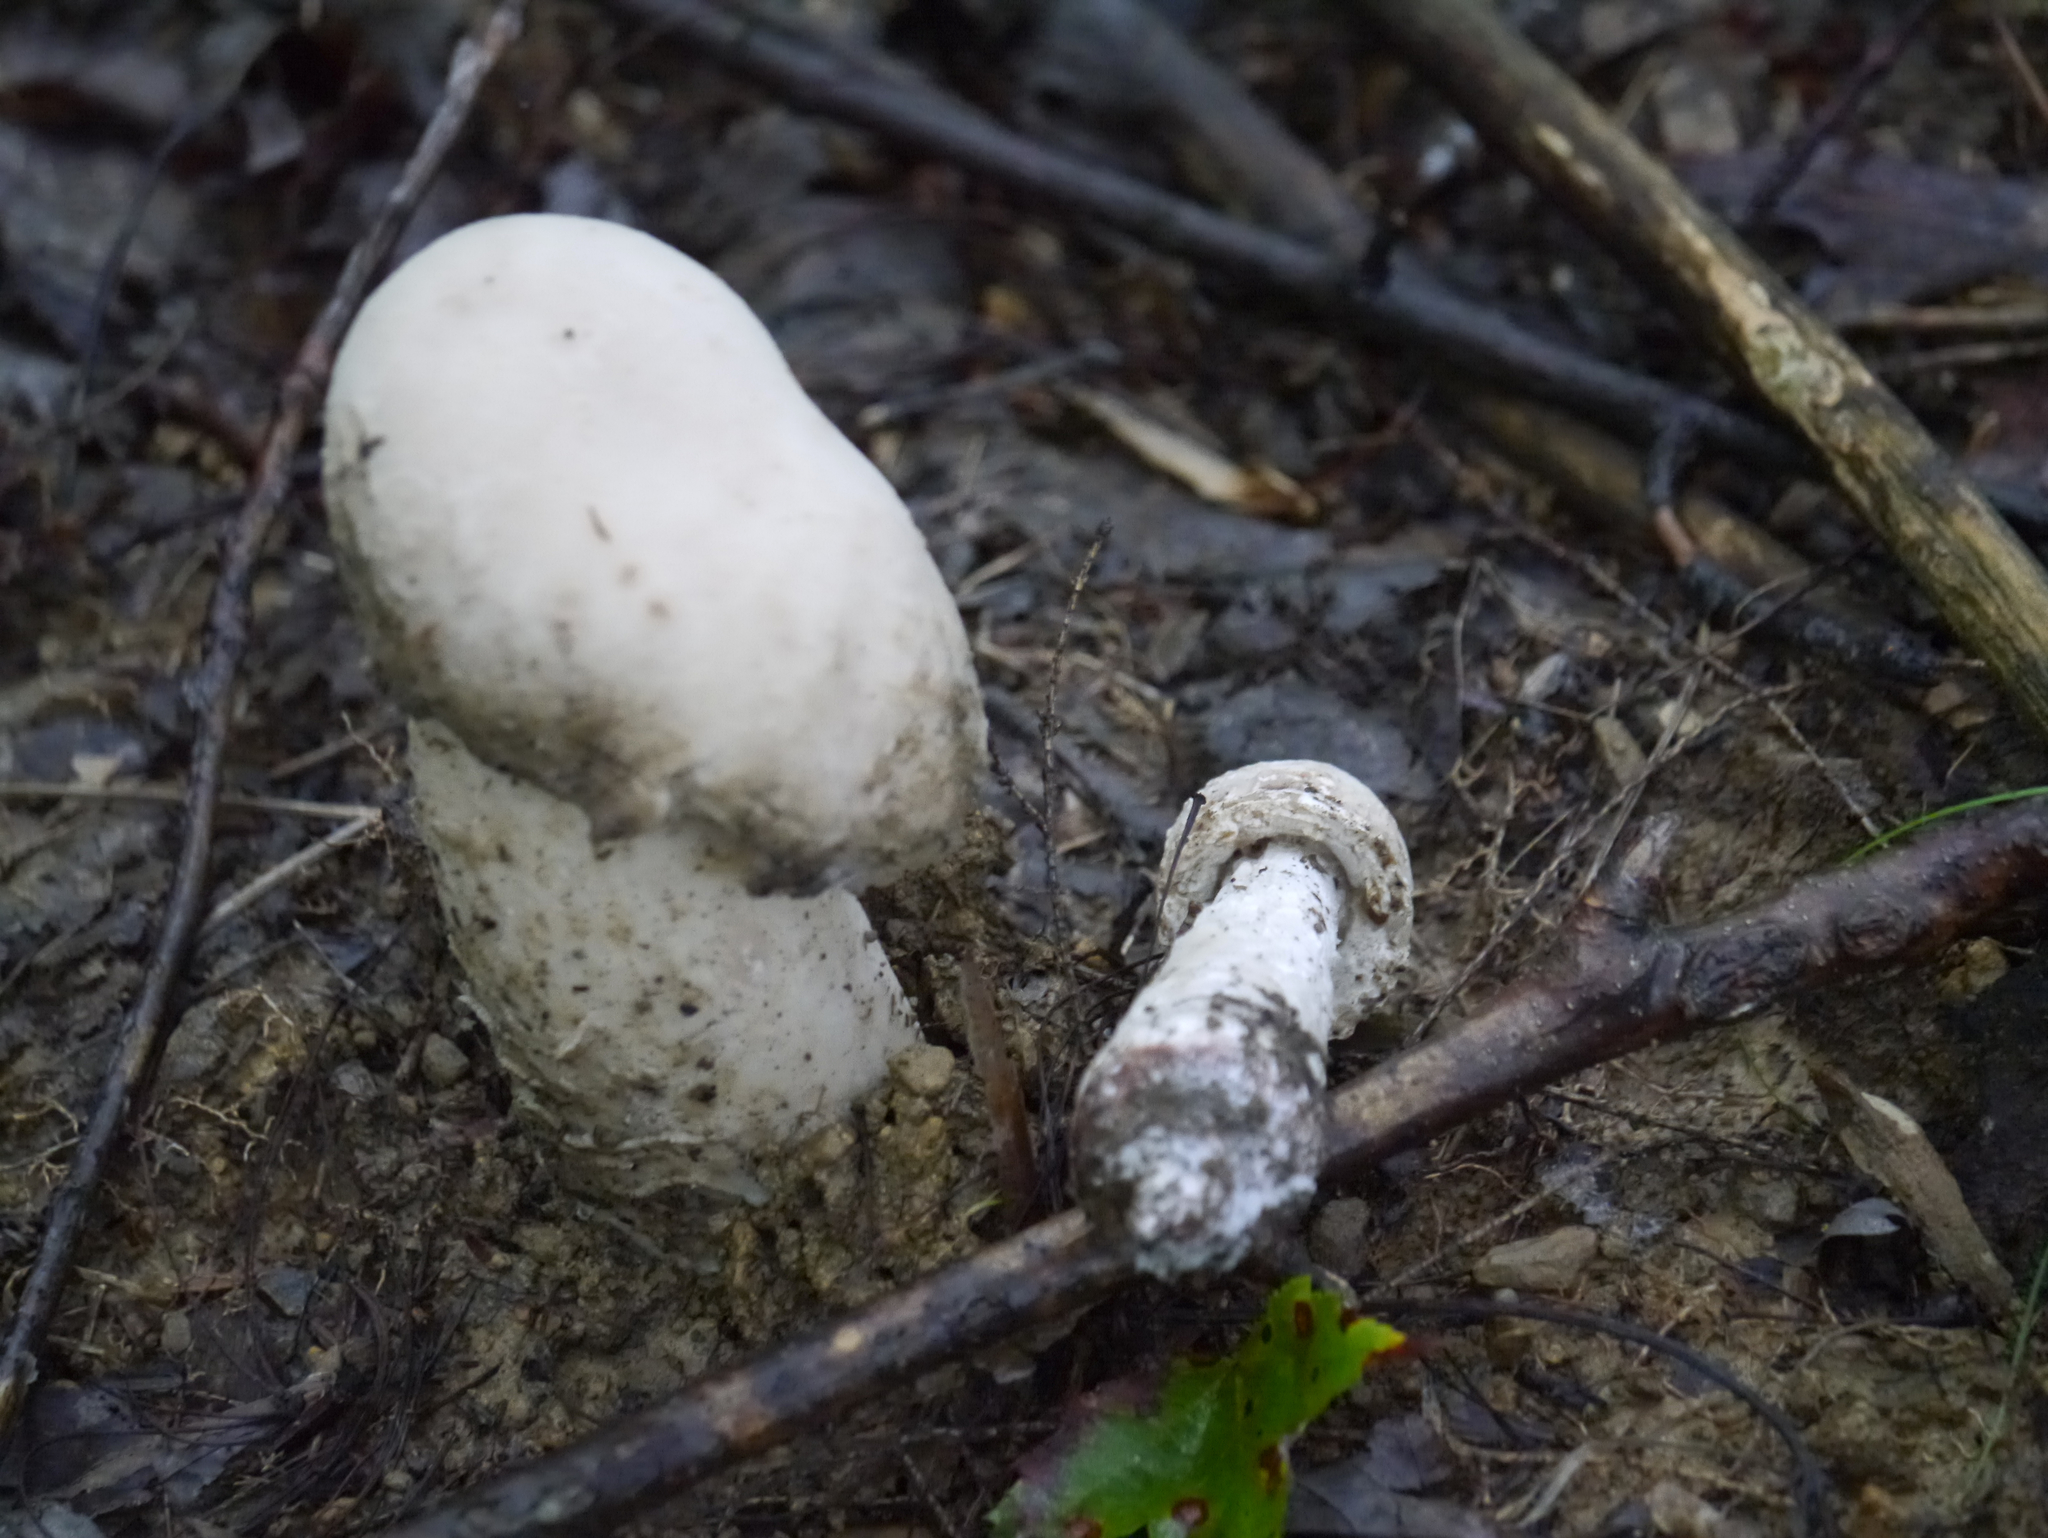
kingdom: Fungi
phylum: Ascomycota
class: Sordariomycetes
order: Hypocreales
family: Hypocreaceae
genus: Hypomyces
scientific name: Hypomyces hyalinus
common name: Amanita mold
